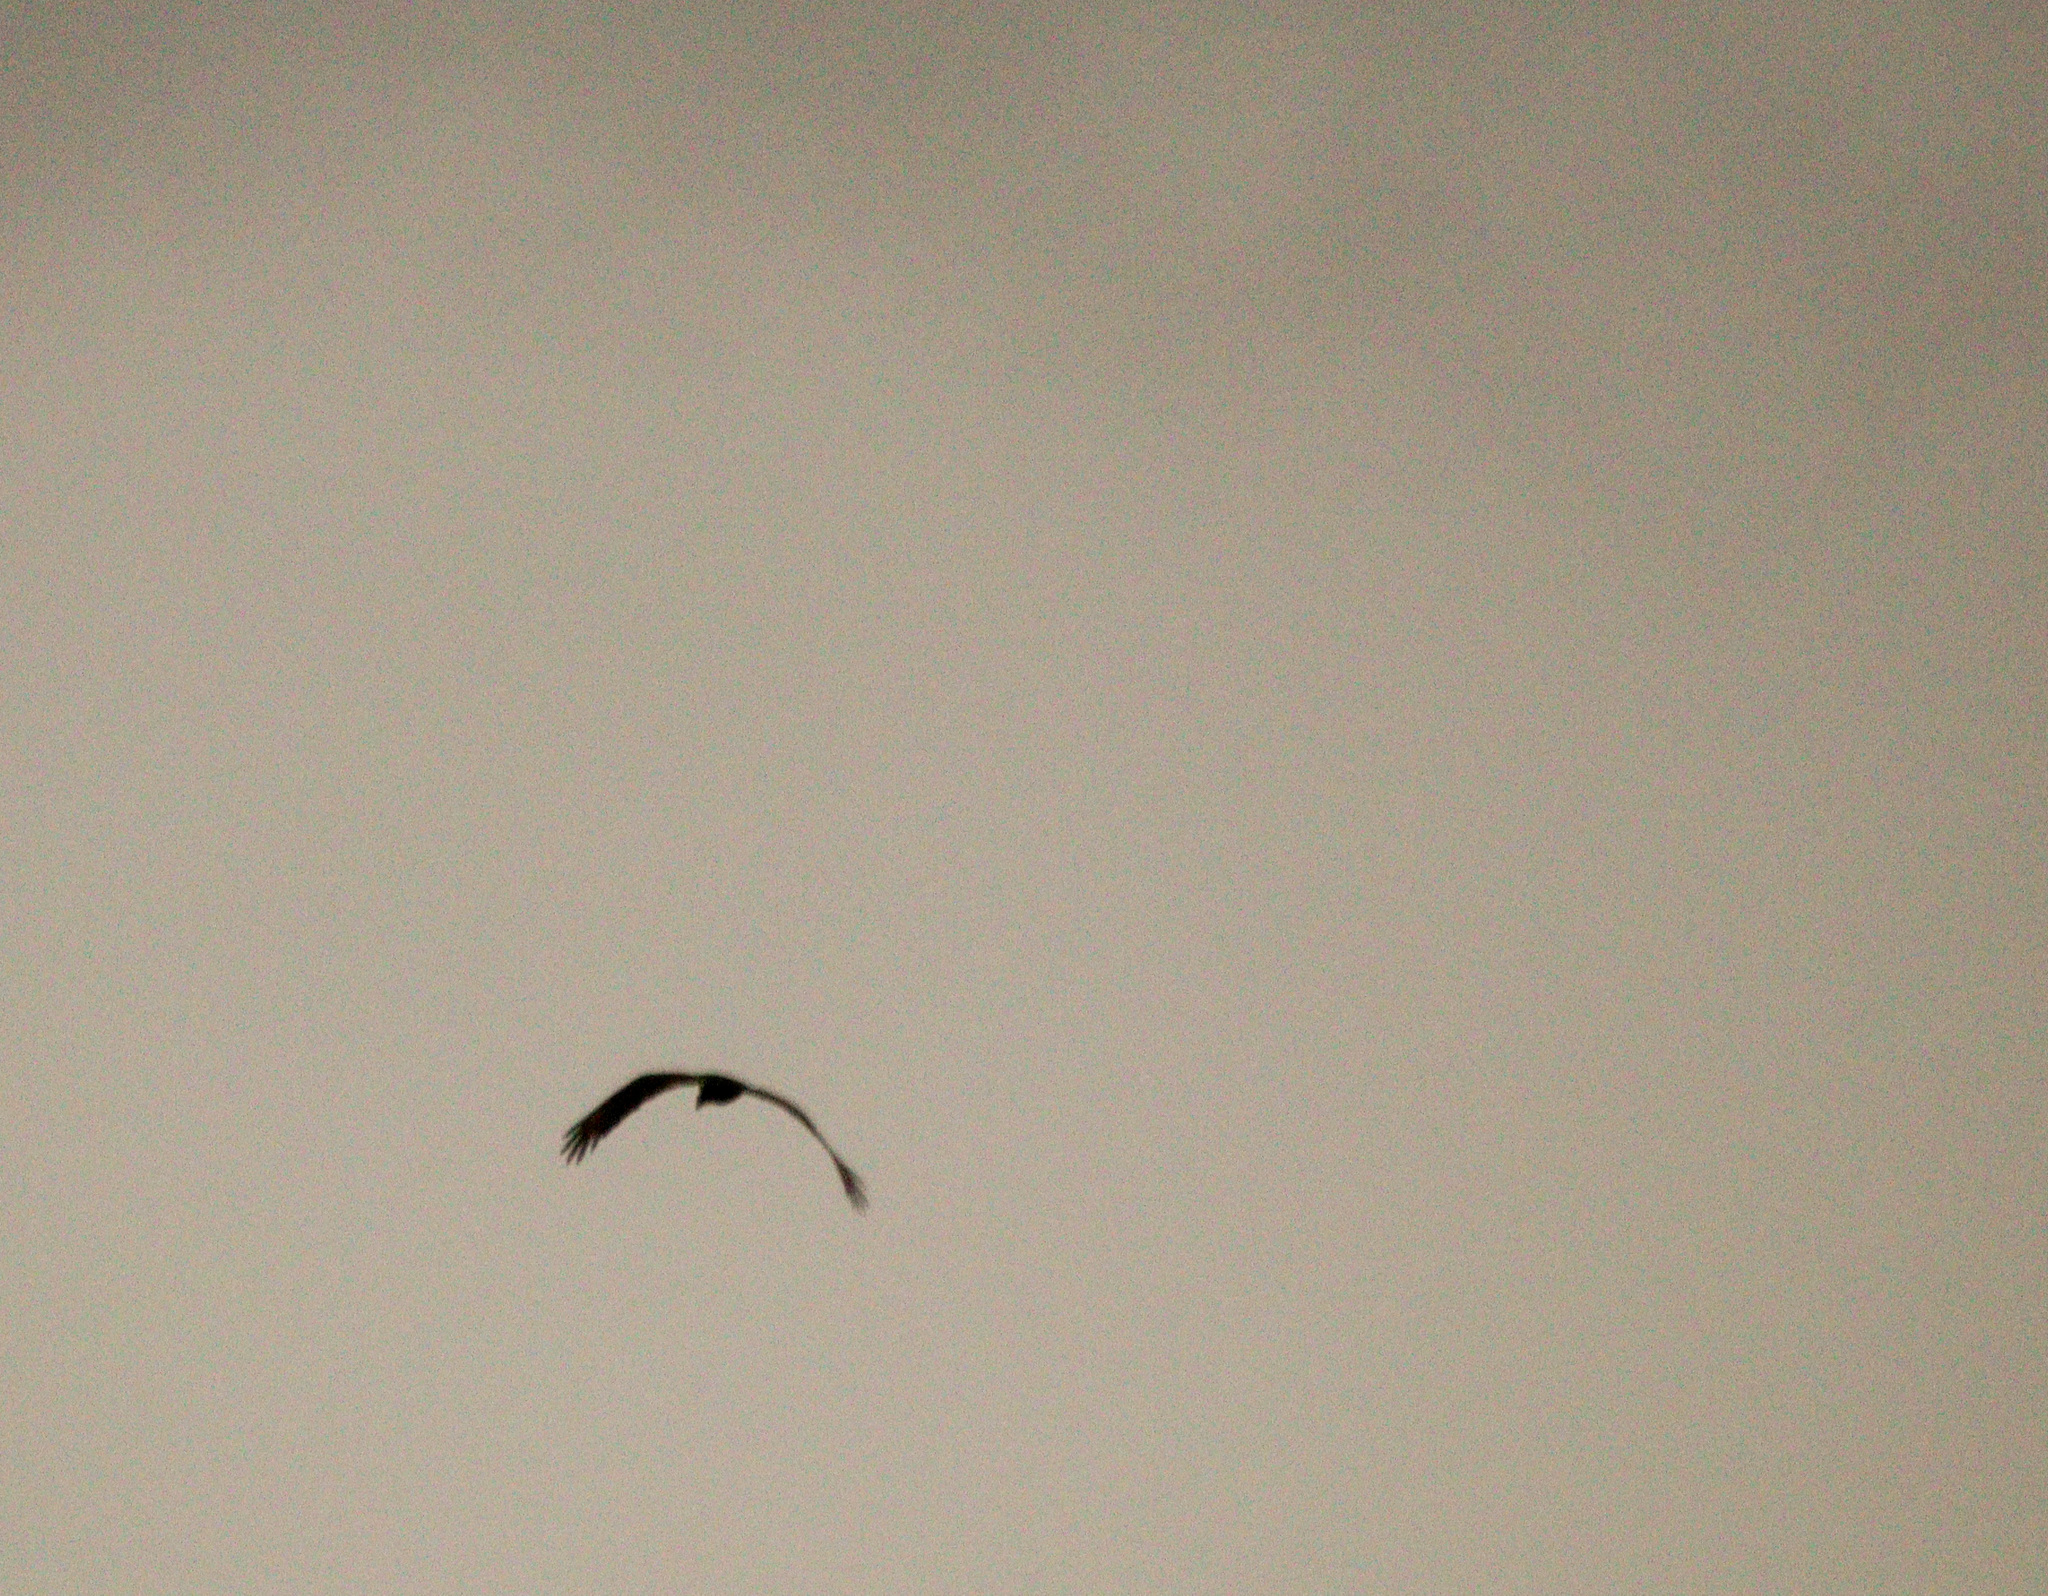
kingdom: Animalia
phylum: Chordata
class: Aves
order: Accipitriformes
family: Cathartidae
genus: Cathartes
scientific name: Cathartes aura
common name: Turkey vulture
